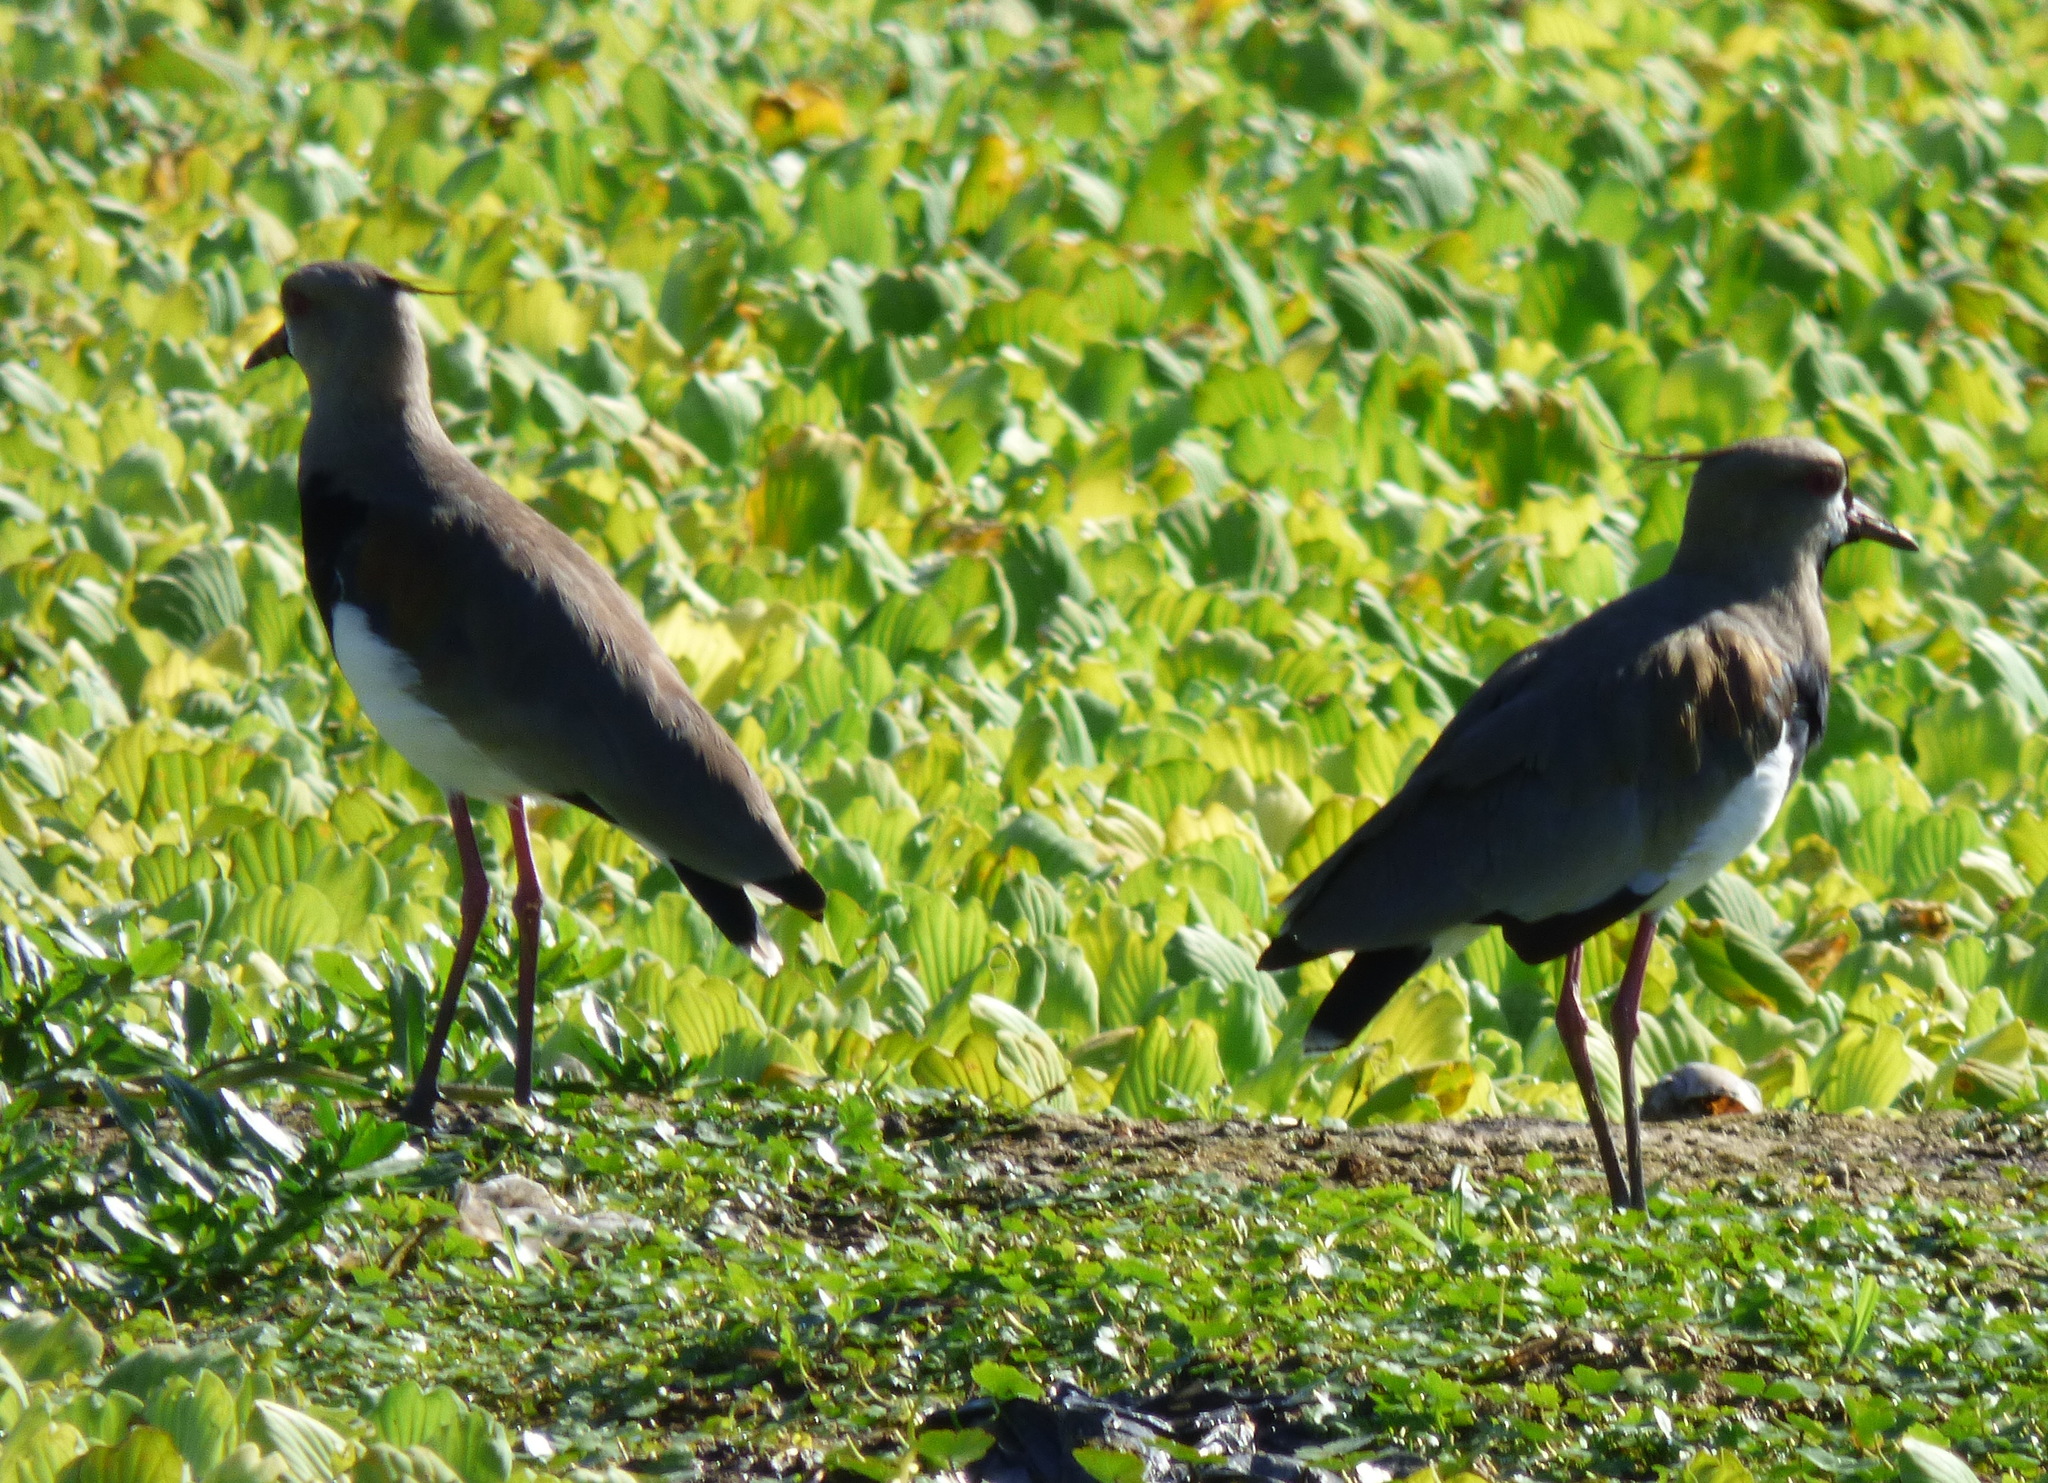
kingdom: Animalia
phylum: Chordata
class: Aves
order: Charadriiformes
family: Charadriidae
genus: Vanellus
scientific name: Vanellus chilensis
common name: Southern lapwing
